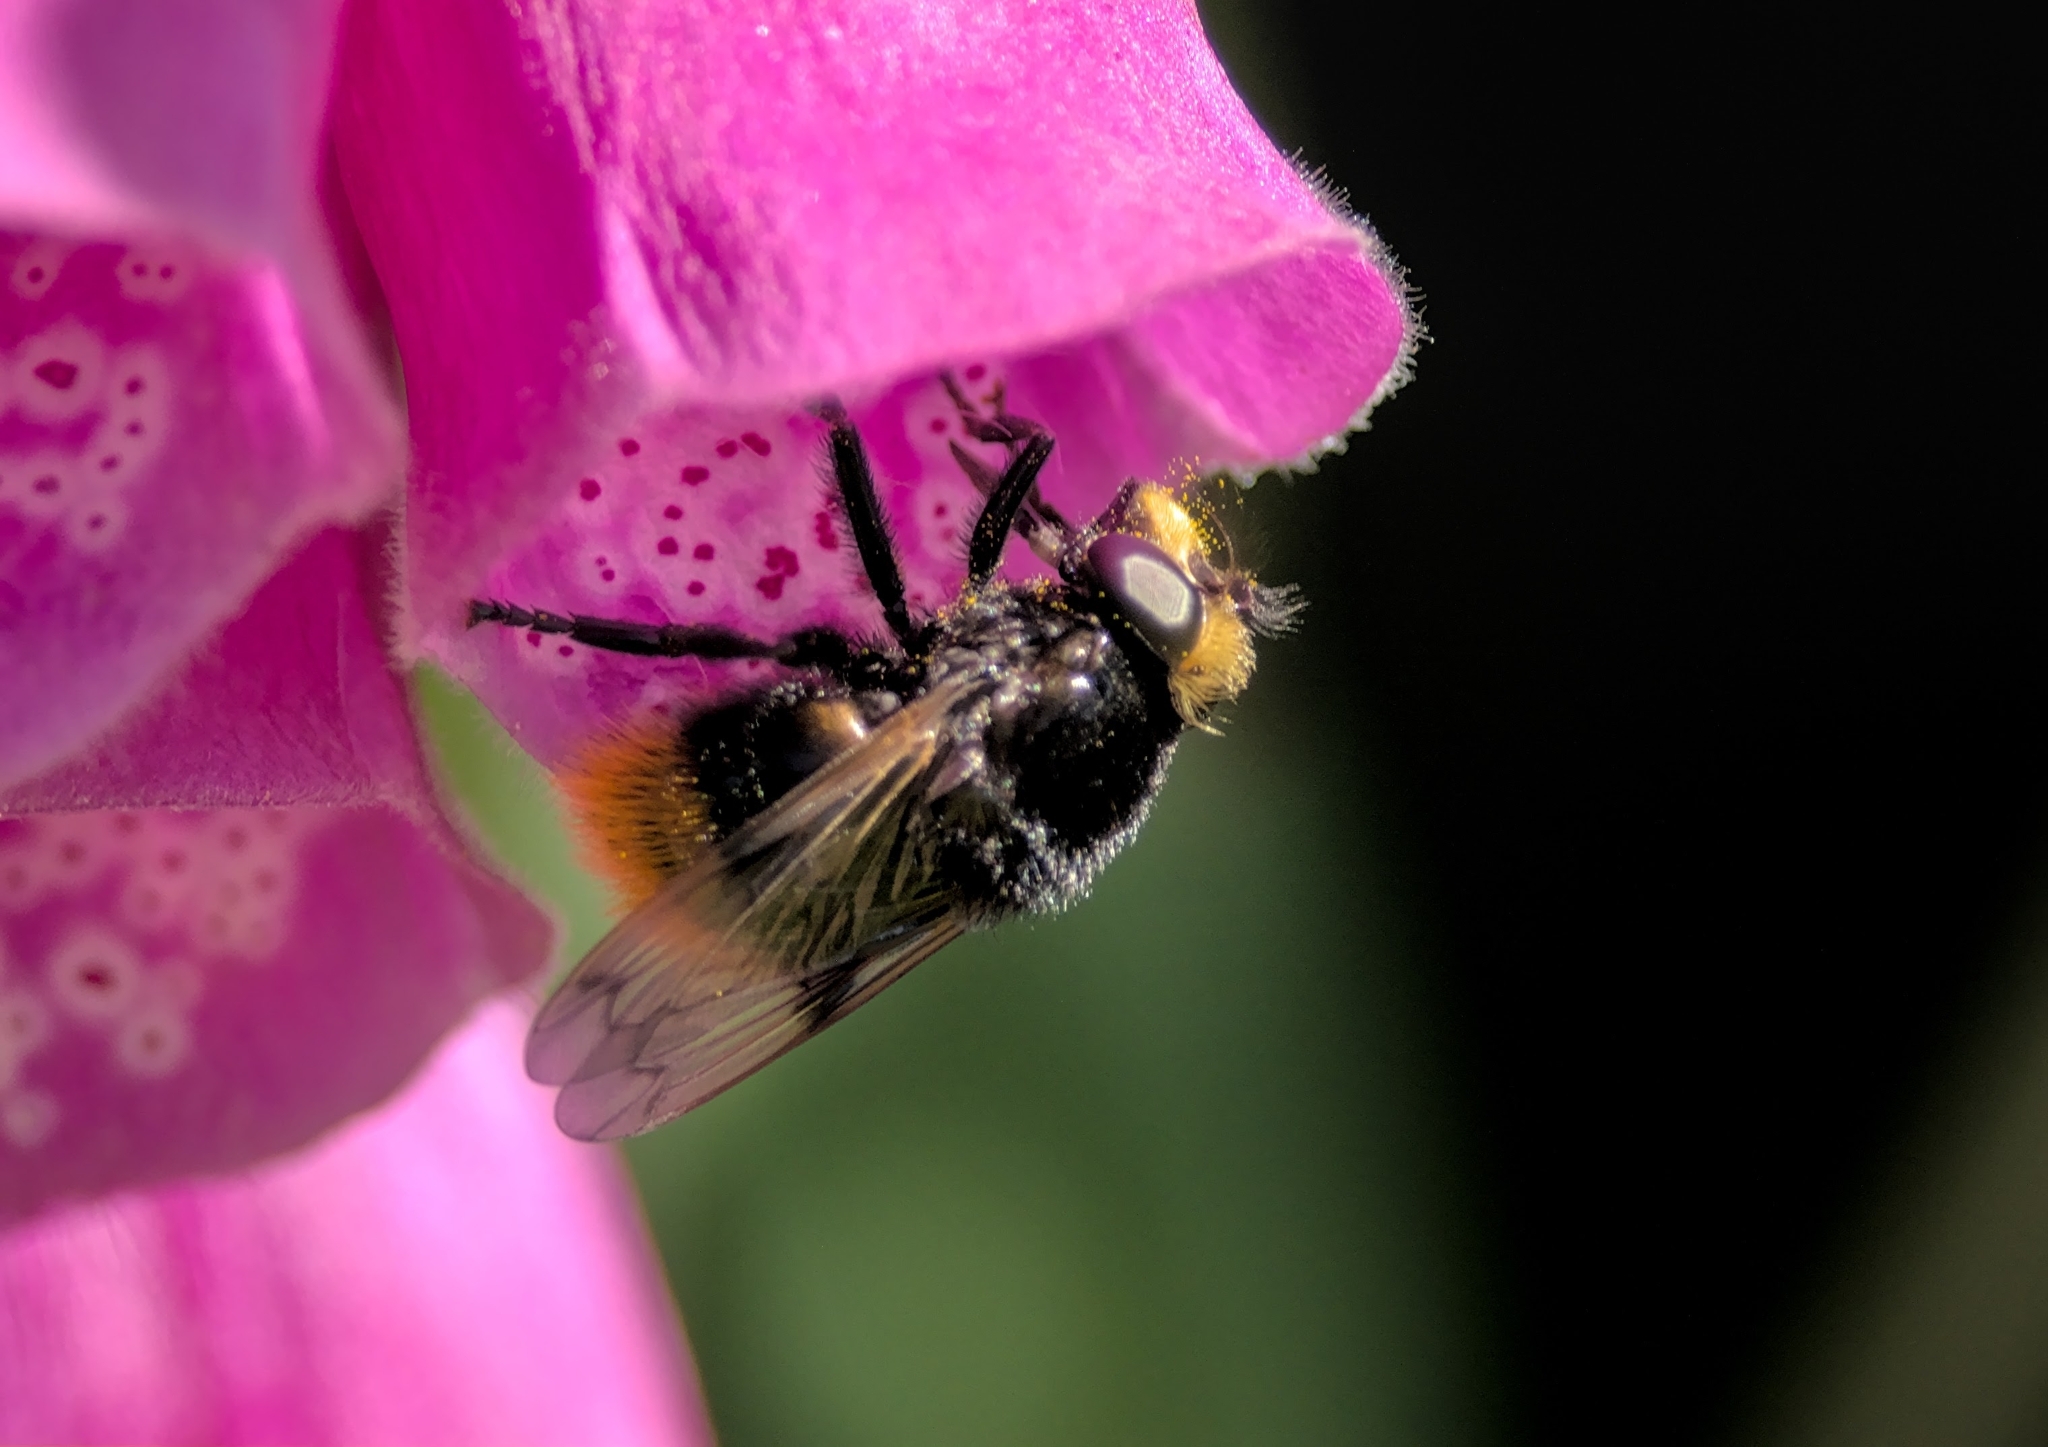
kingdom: Animalia
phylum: Arthropoda
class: Insecta
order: Diptera
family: Syrphidae
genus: Volucella
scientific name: Volucella bombylans
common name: Bumble bee hover fly
